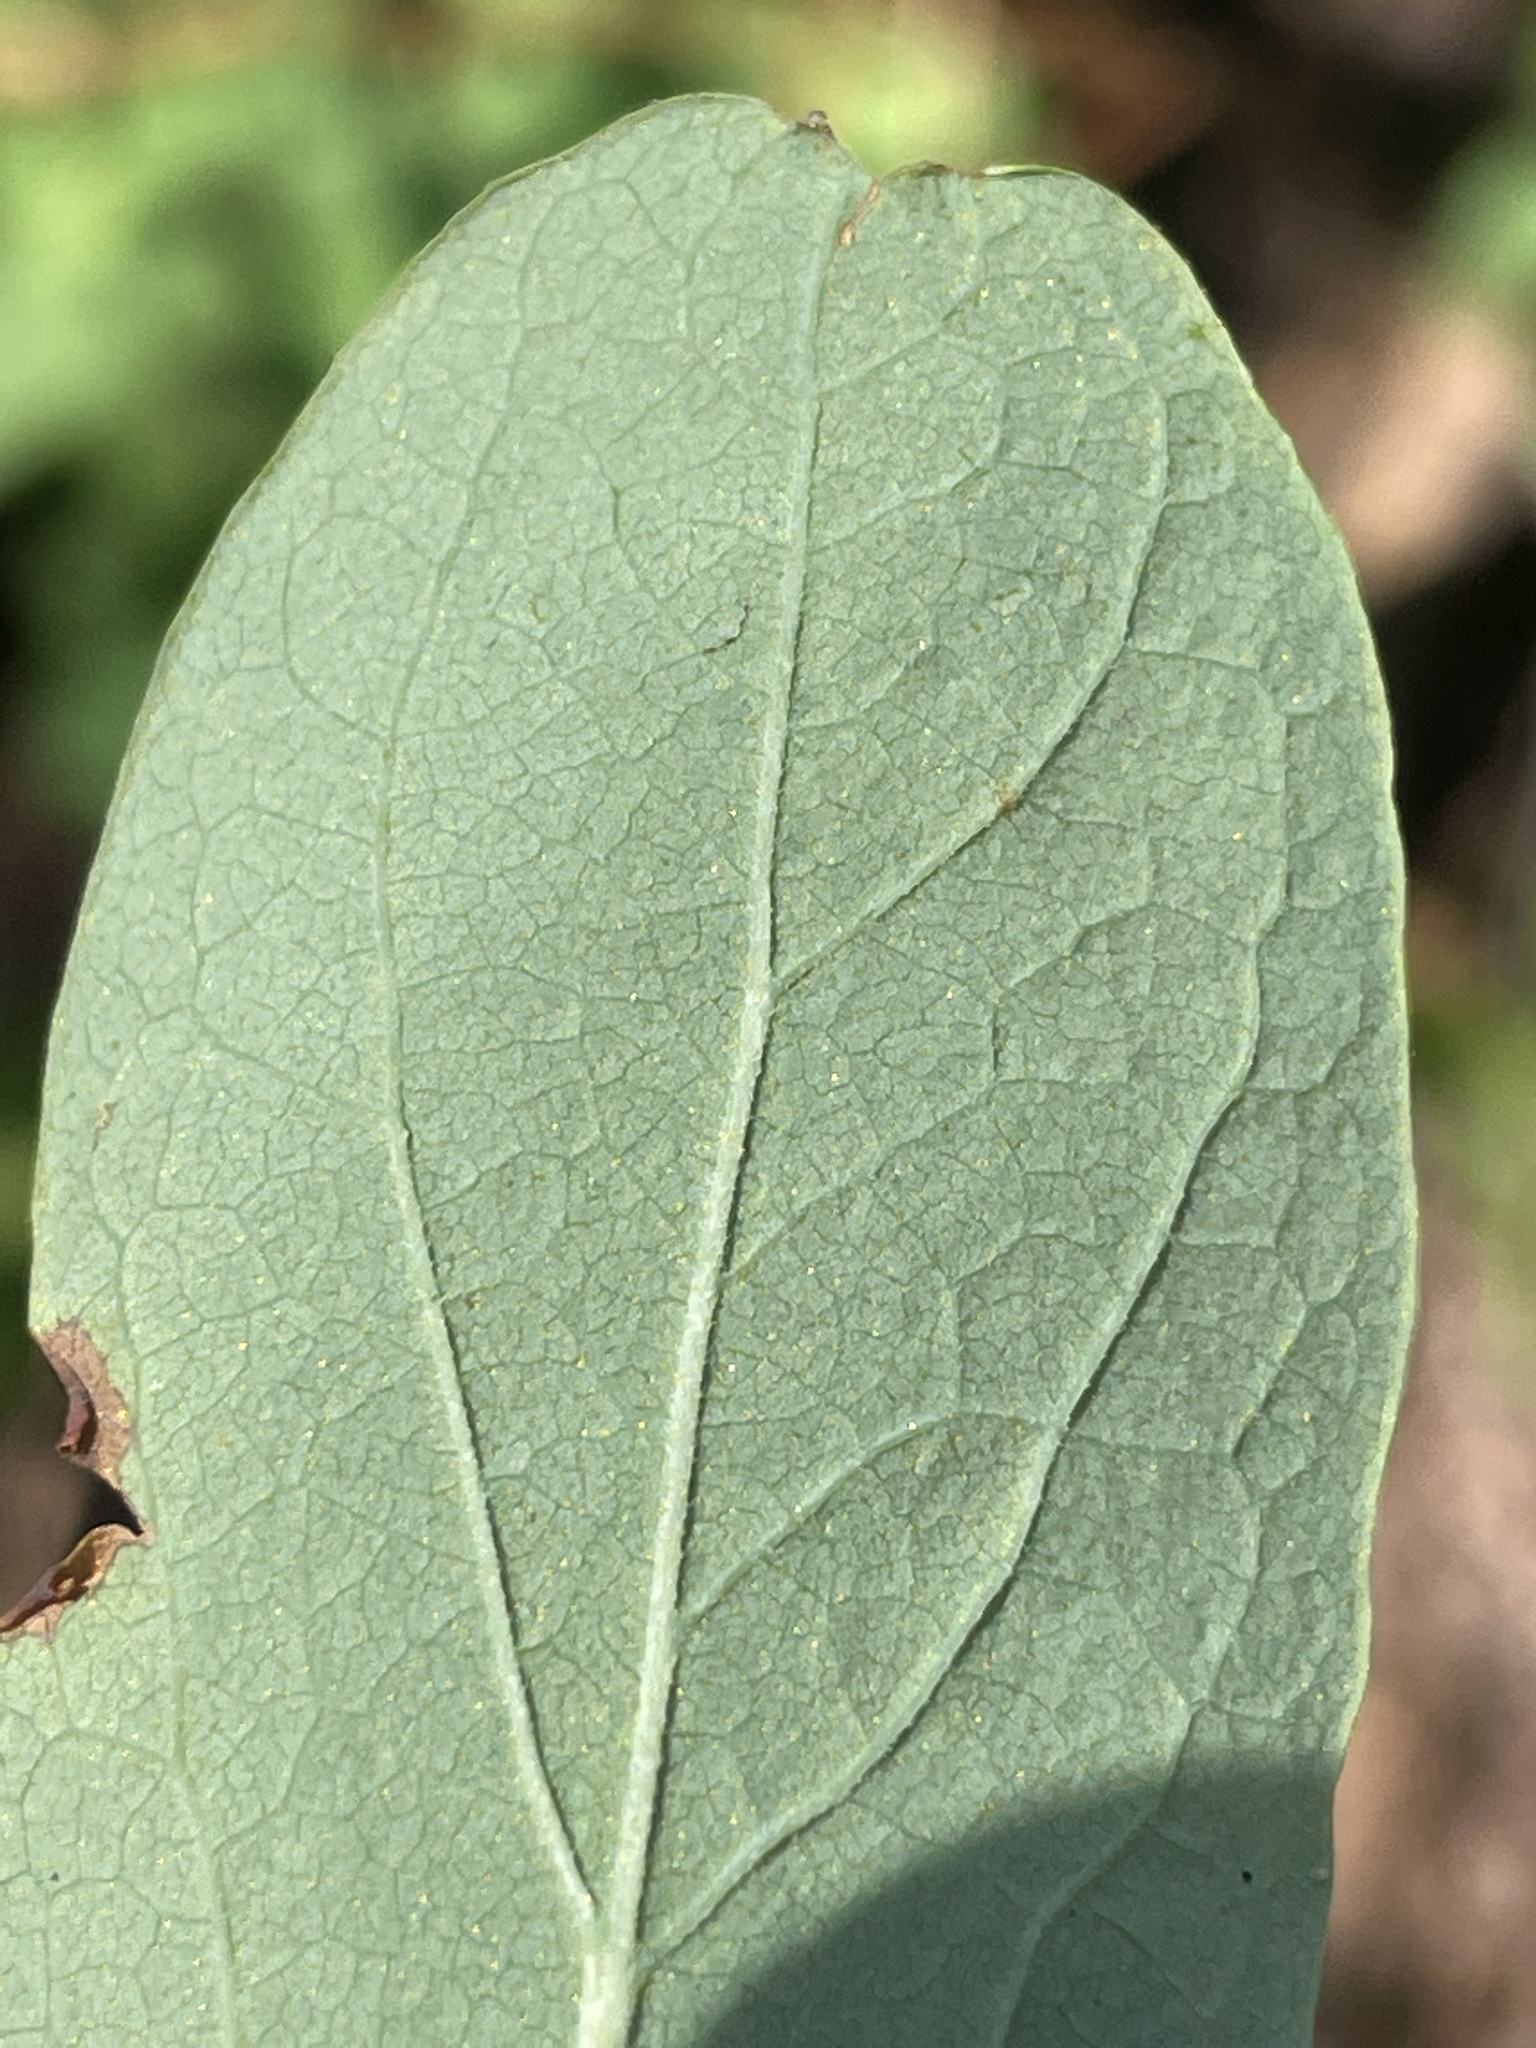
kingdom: Plantae
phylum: Tracheophyta
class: Magnoliopsida
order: Ericales
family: Ericaceae
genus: Gaylussacia
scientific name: Gaylussacia frondosa
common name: Dangleberry
